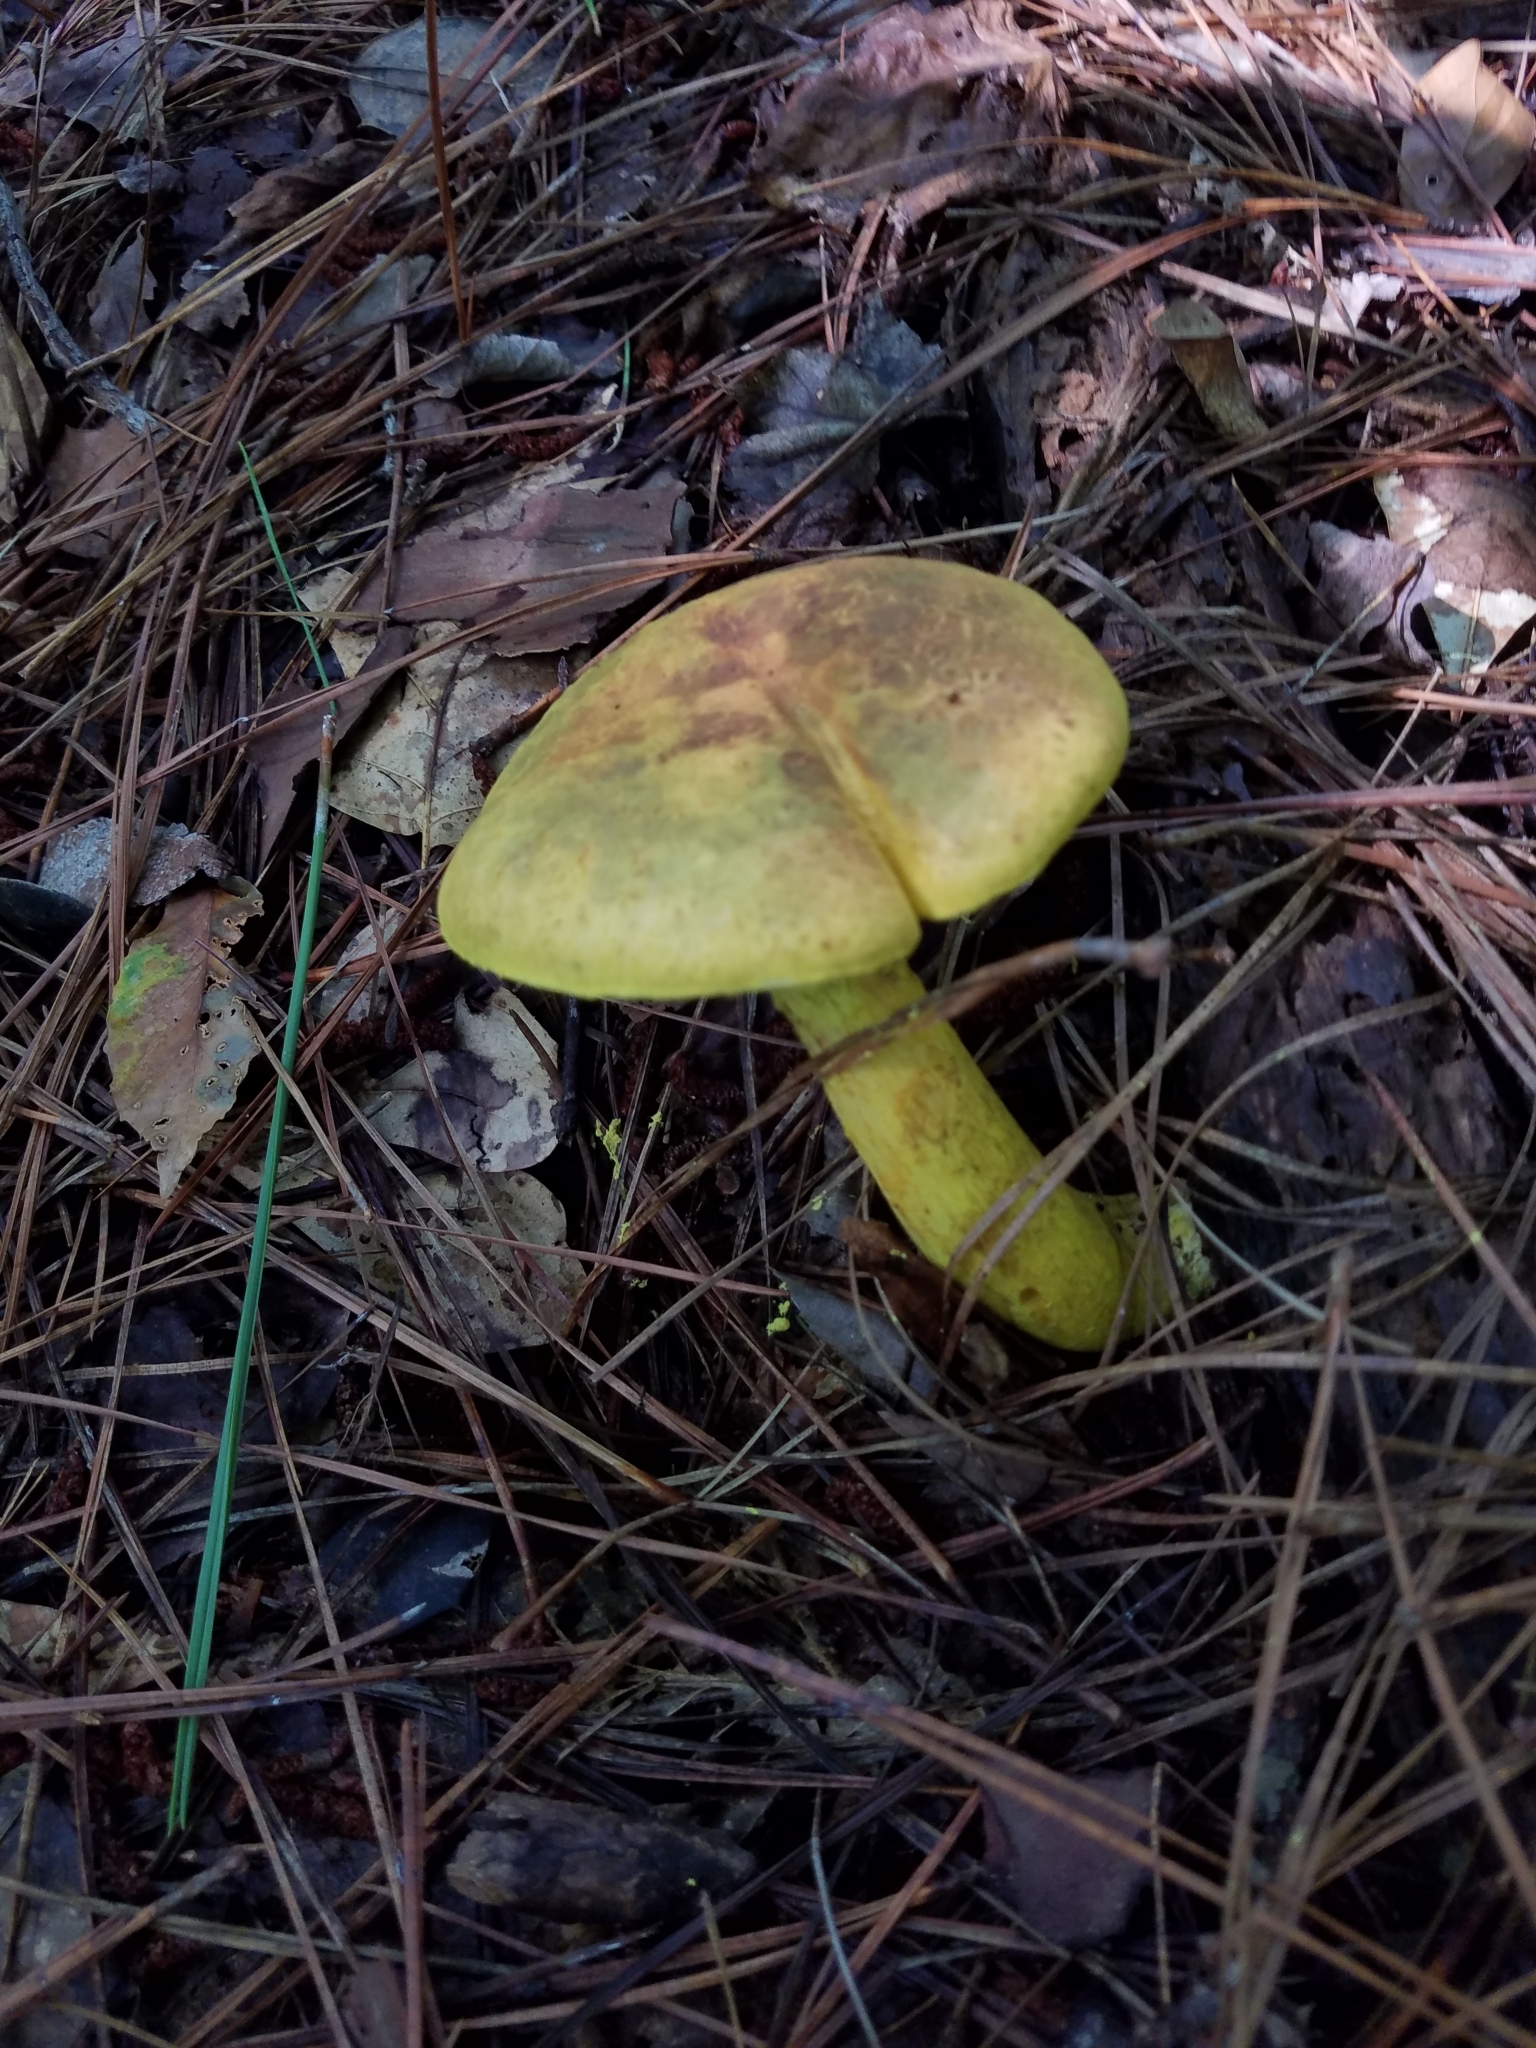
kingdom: Fungi
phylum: Basidiomycota
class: Agaricomycetes
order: Boletales
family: Boletaceae
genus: Retiboletus
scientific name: Retiboletus ornatipes
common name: Ornate-stalked bolete
